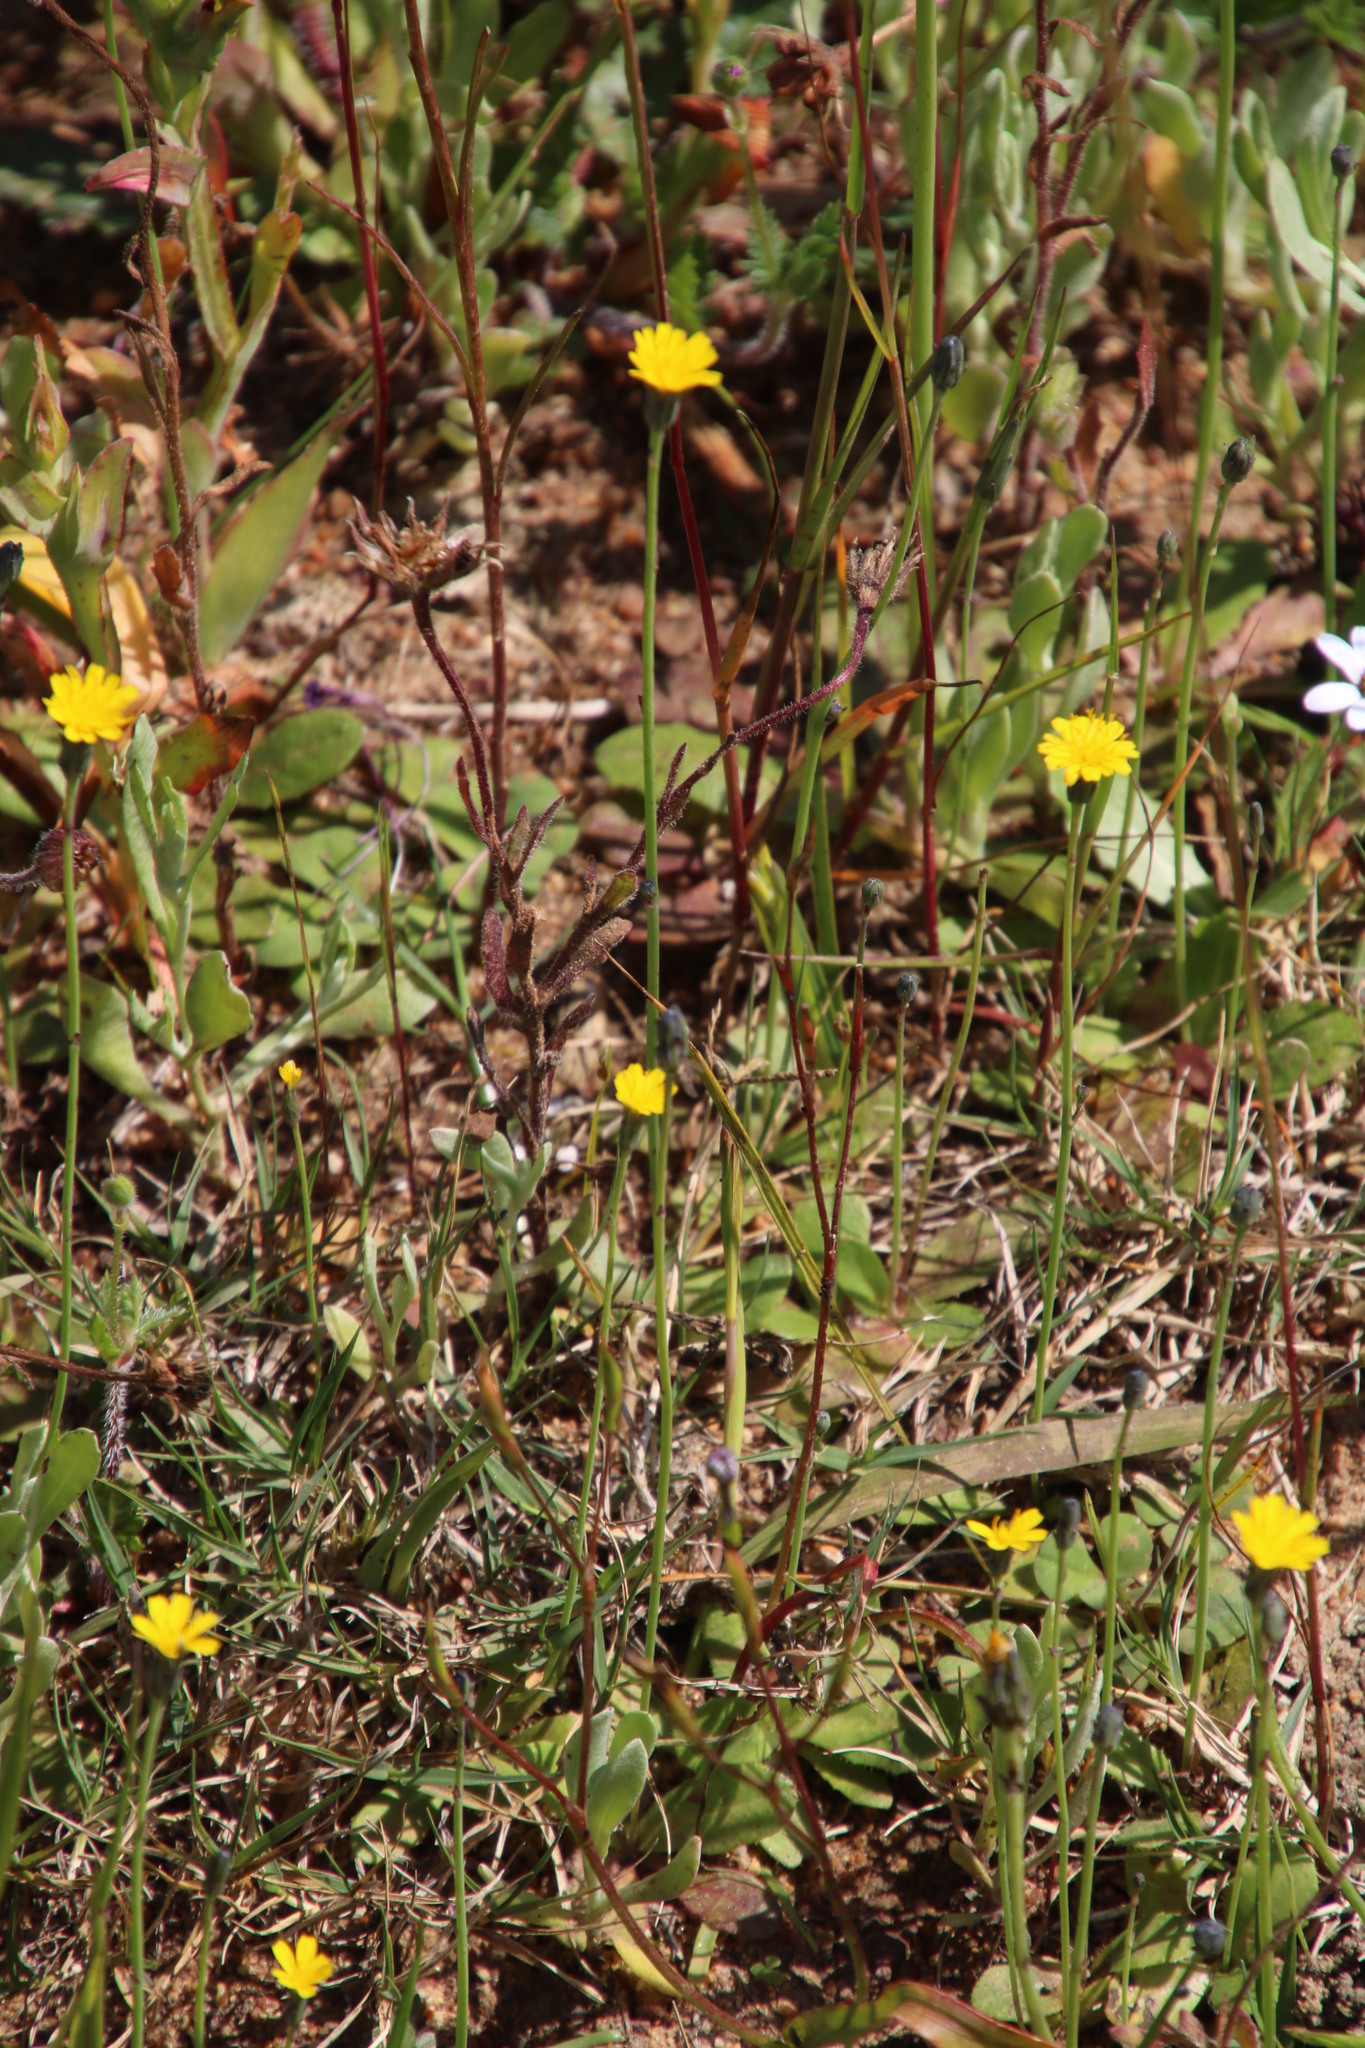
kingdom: Plantae
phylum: Tracheophyta
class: Magnoliopsida
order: Asterales
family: Asteraceae
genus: Hypochaeris
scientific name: Hypochaeris glabra
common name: Smooth catsear
